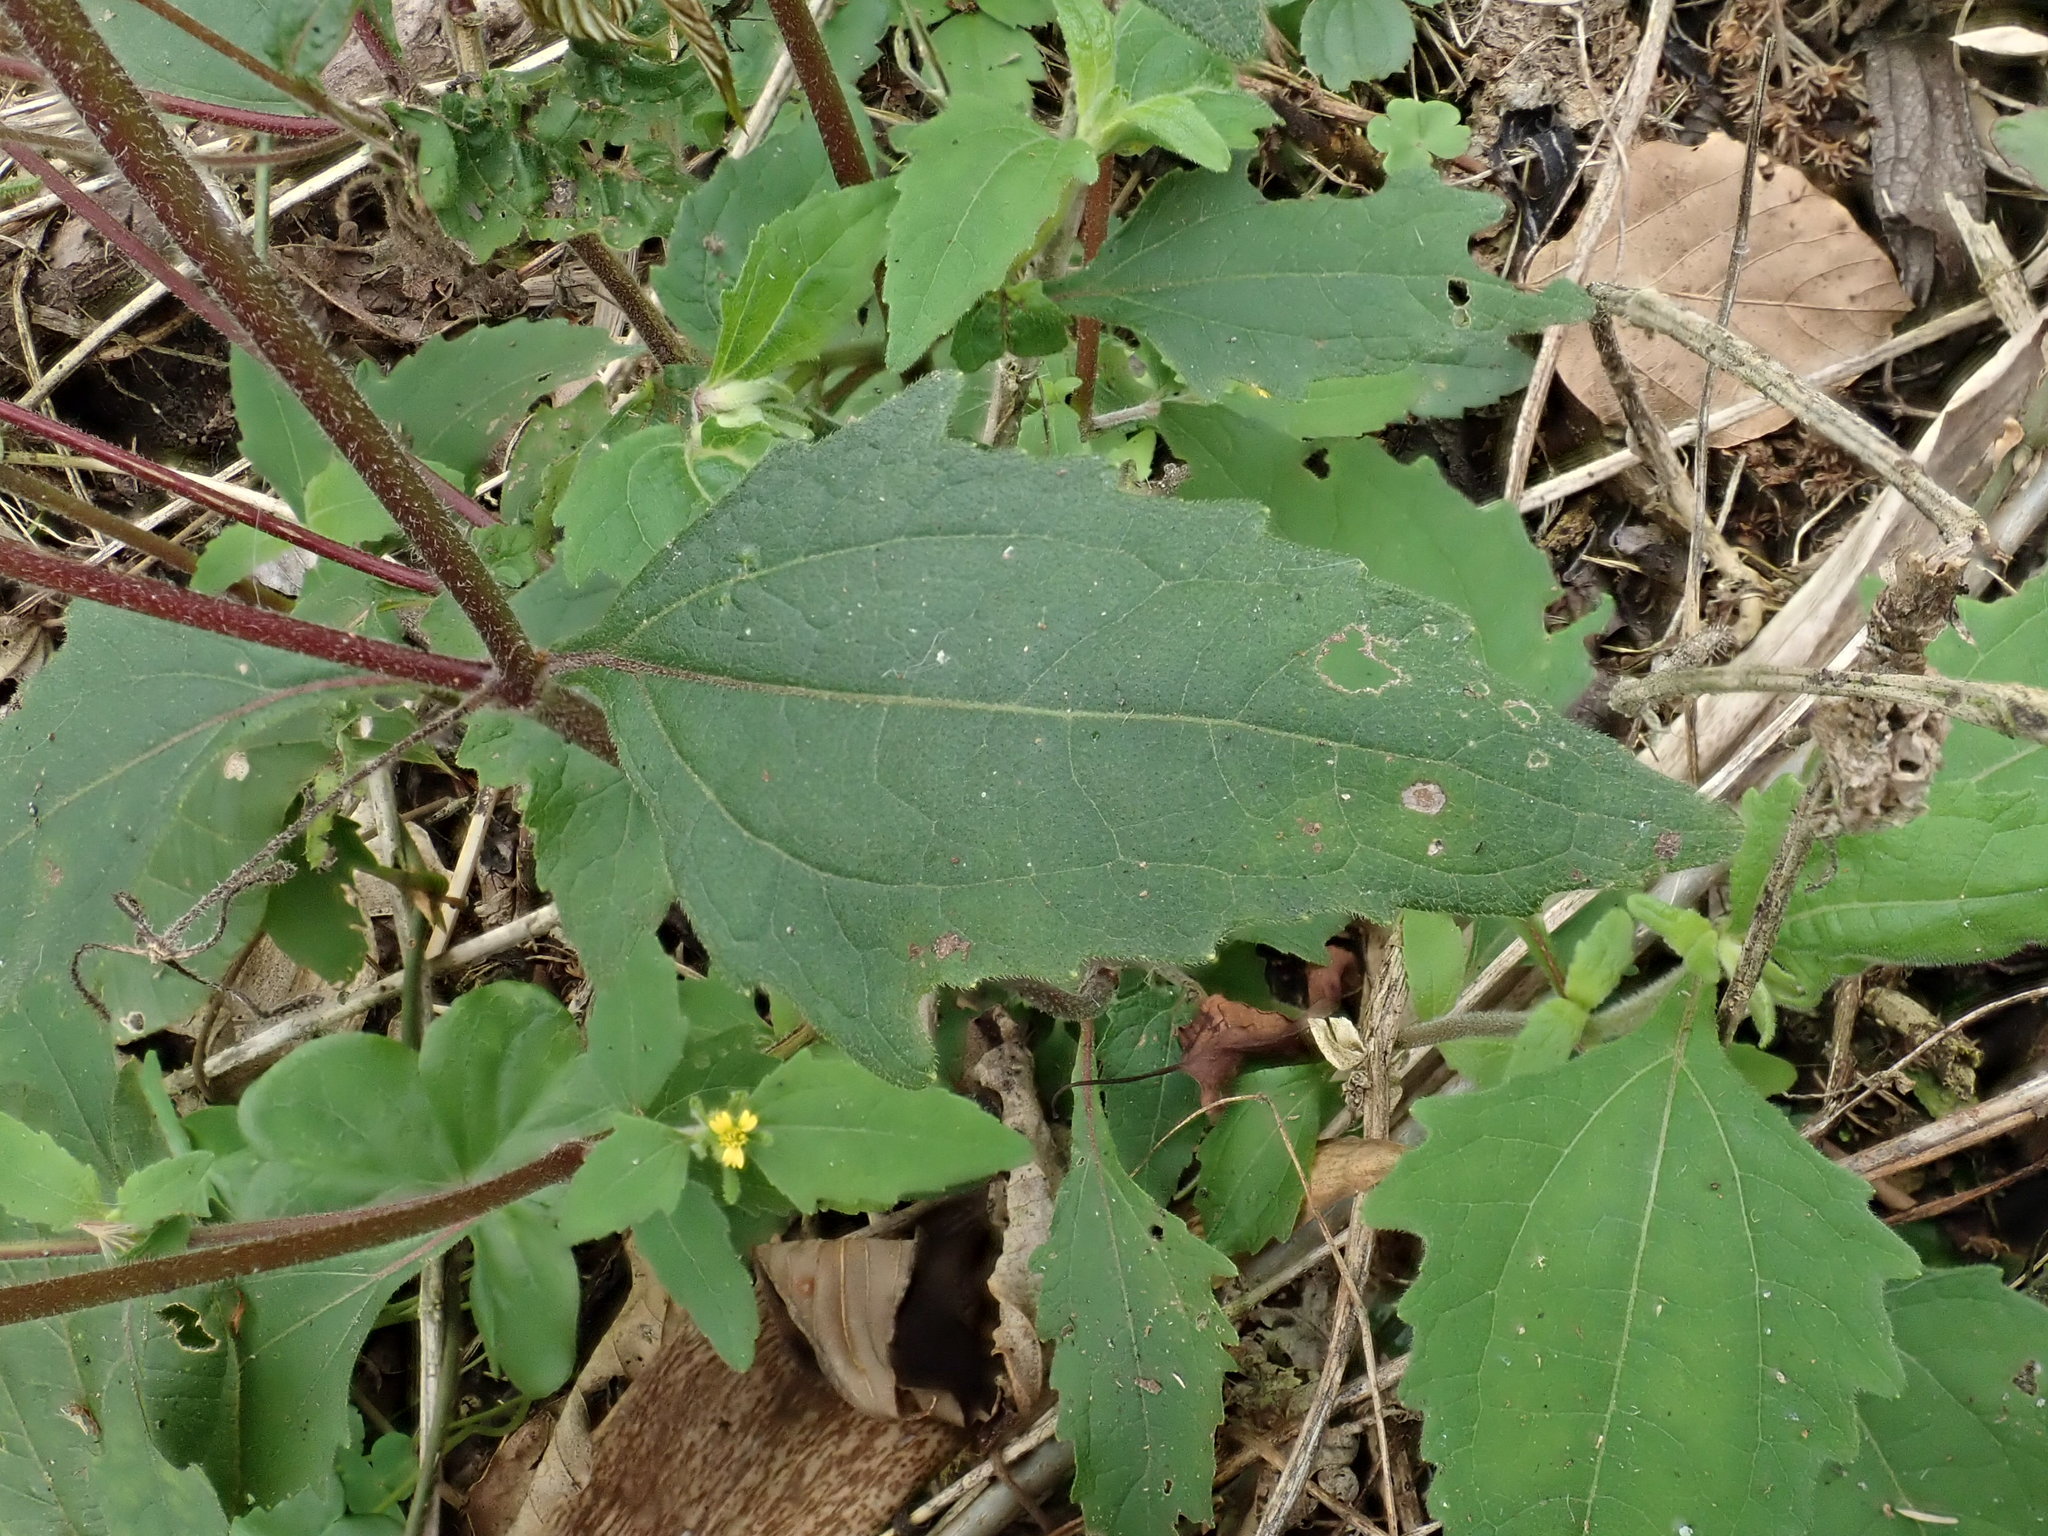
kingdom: Plantae
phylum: Tracheophyta
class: Magnoliopsida
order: Asterales
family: Asteraceae
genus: Sigesbeckia
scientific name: Sigesbeckia orientalis
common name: Eastern st paul's-wort
